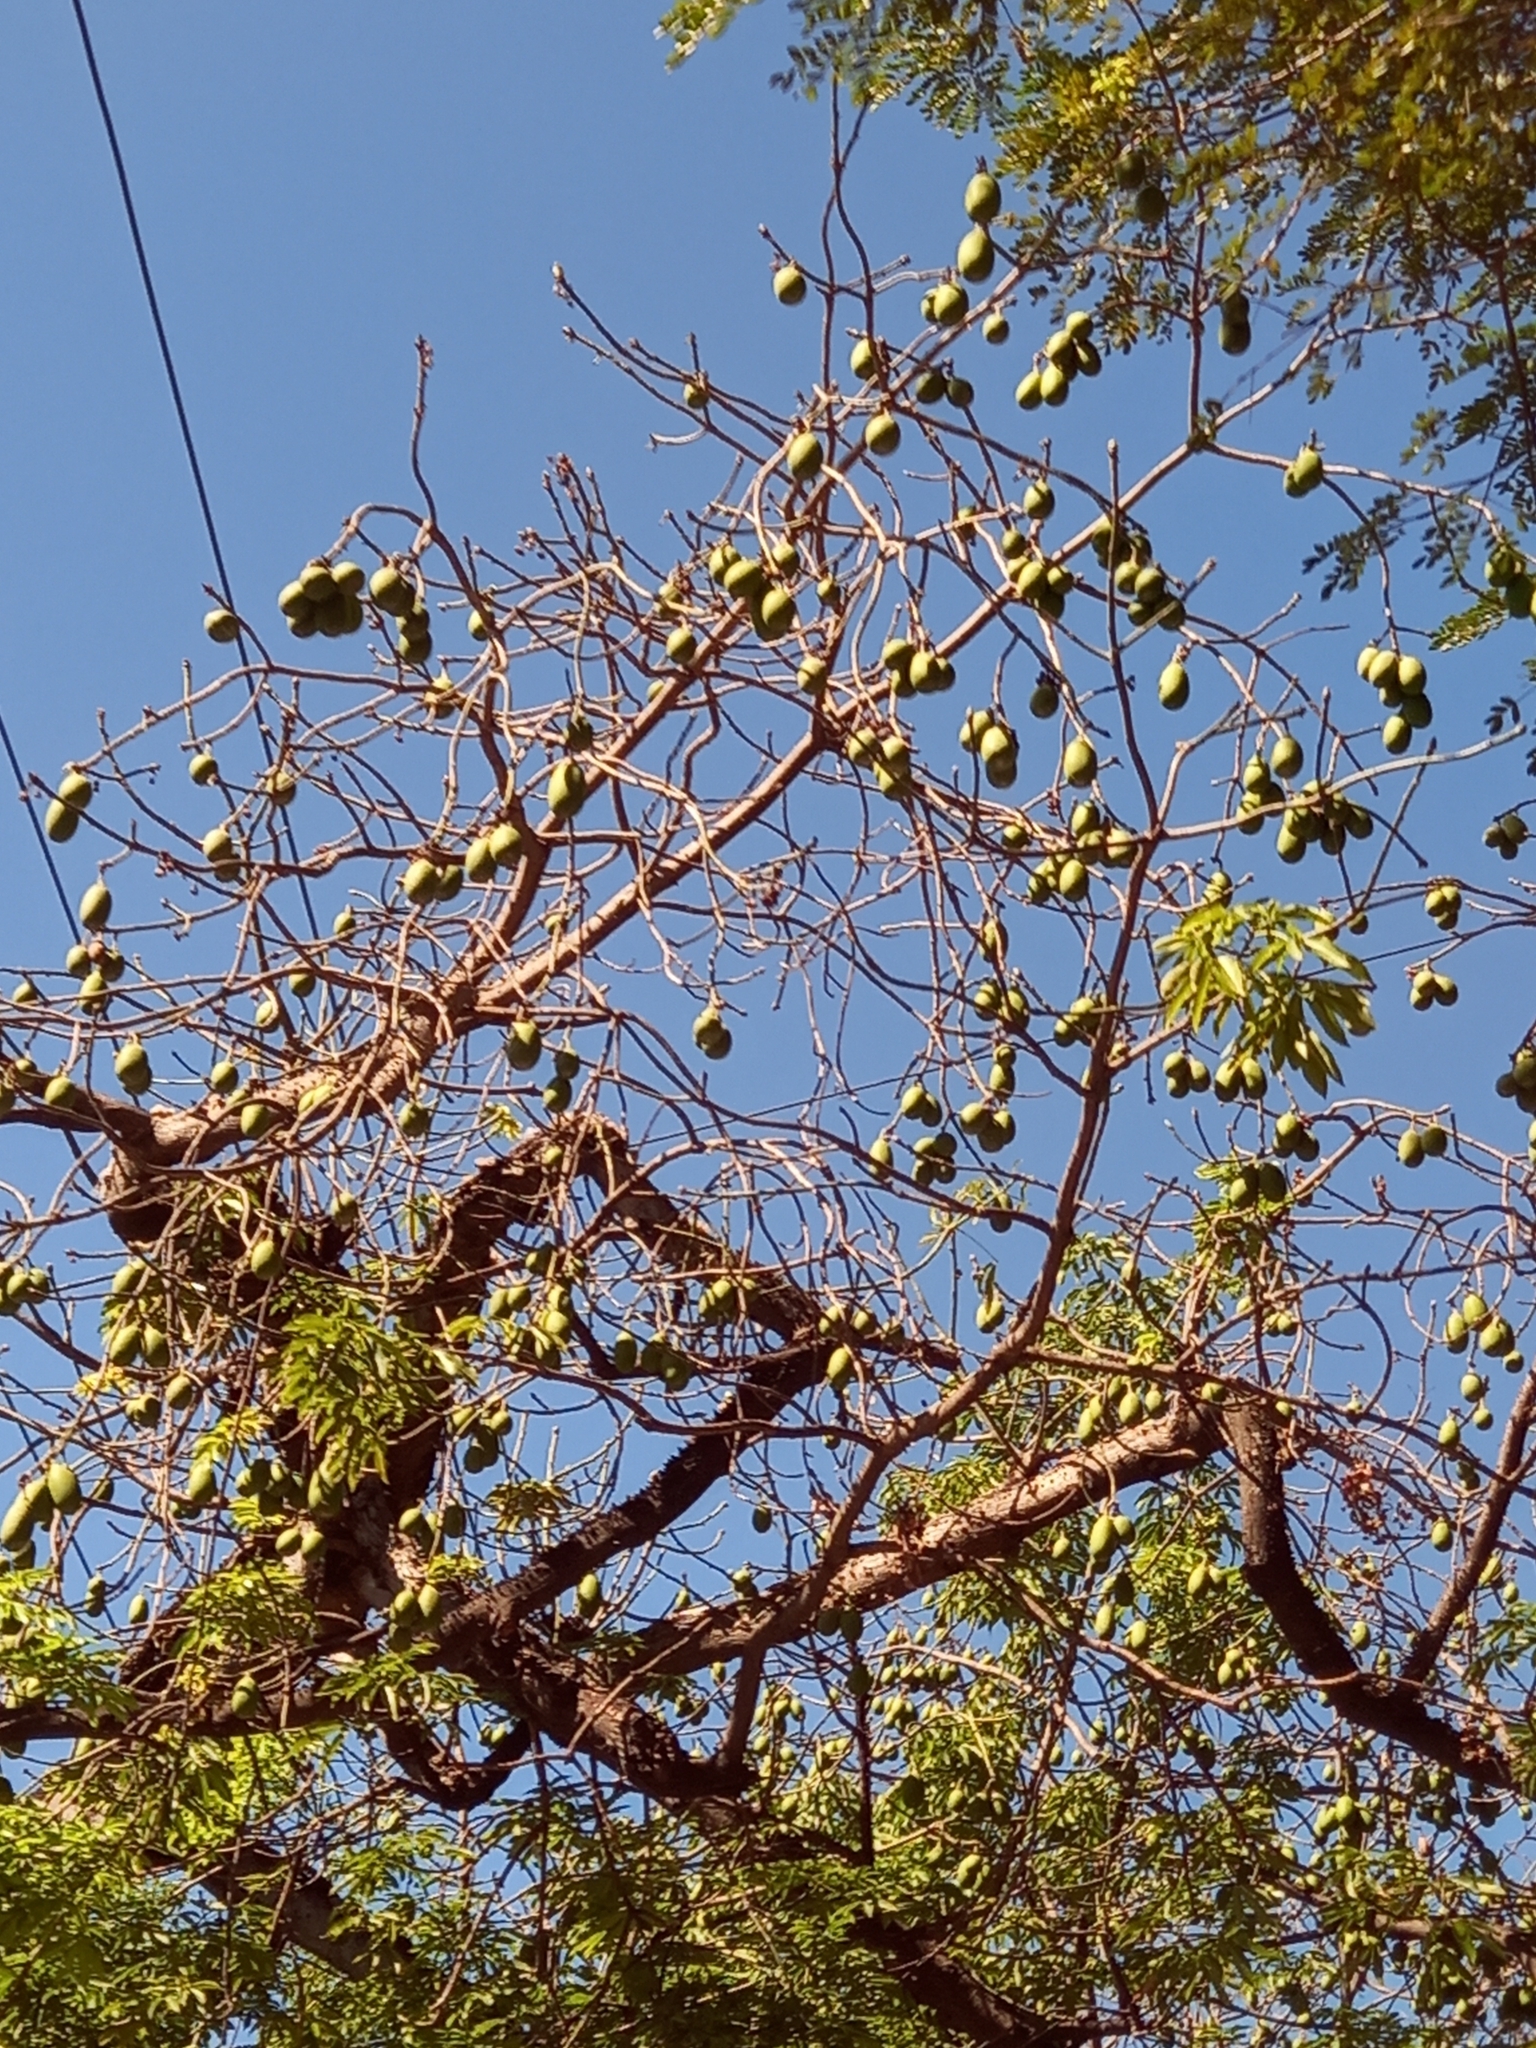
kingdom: Plantae
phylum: Tracheophyta
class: Magnoliopsida
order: Malvales
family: Malvaceae
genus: Ceiba
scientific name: Ceiba pentandra
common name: Kapok
